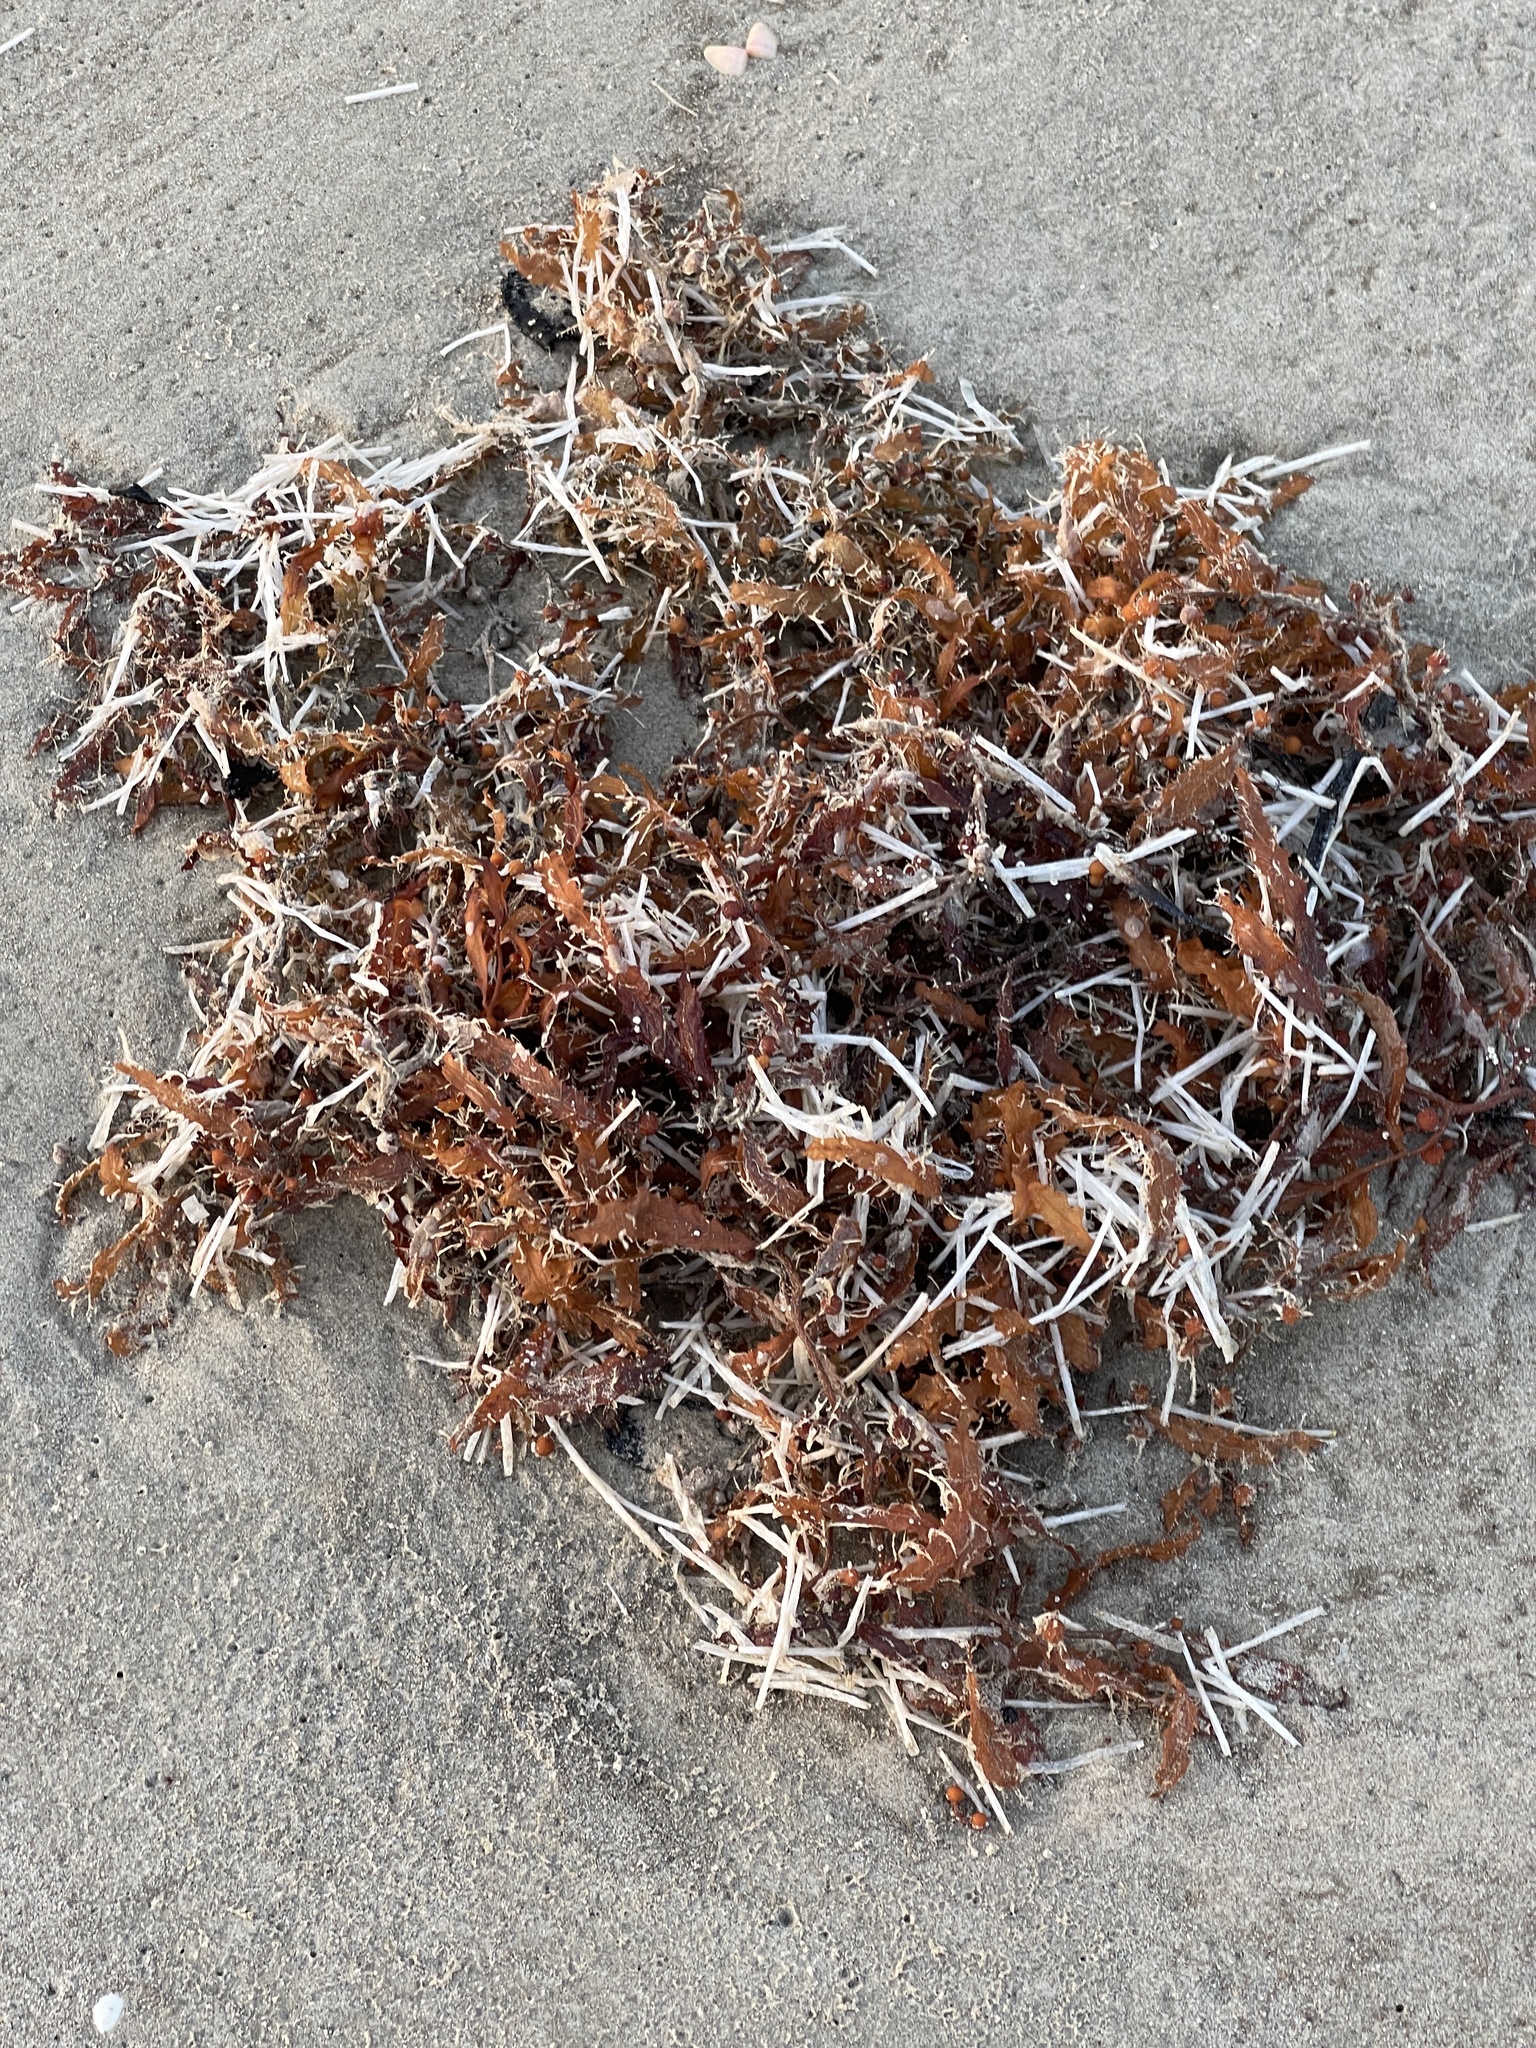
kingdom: Chromista
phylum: Ochrophyta
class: Phaeophyceae
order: Fucales
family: Sargassaceae
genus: Sargassum
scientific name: Sargassum fluitans
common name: Sargassum seaweed
